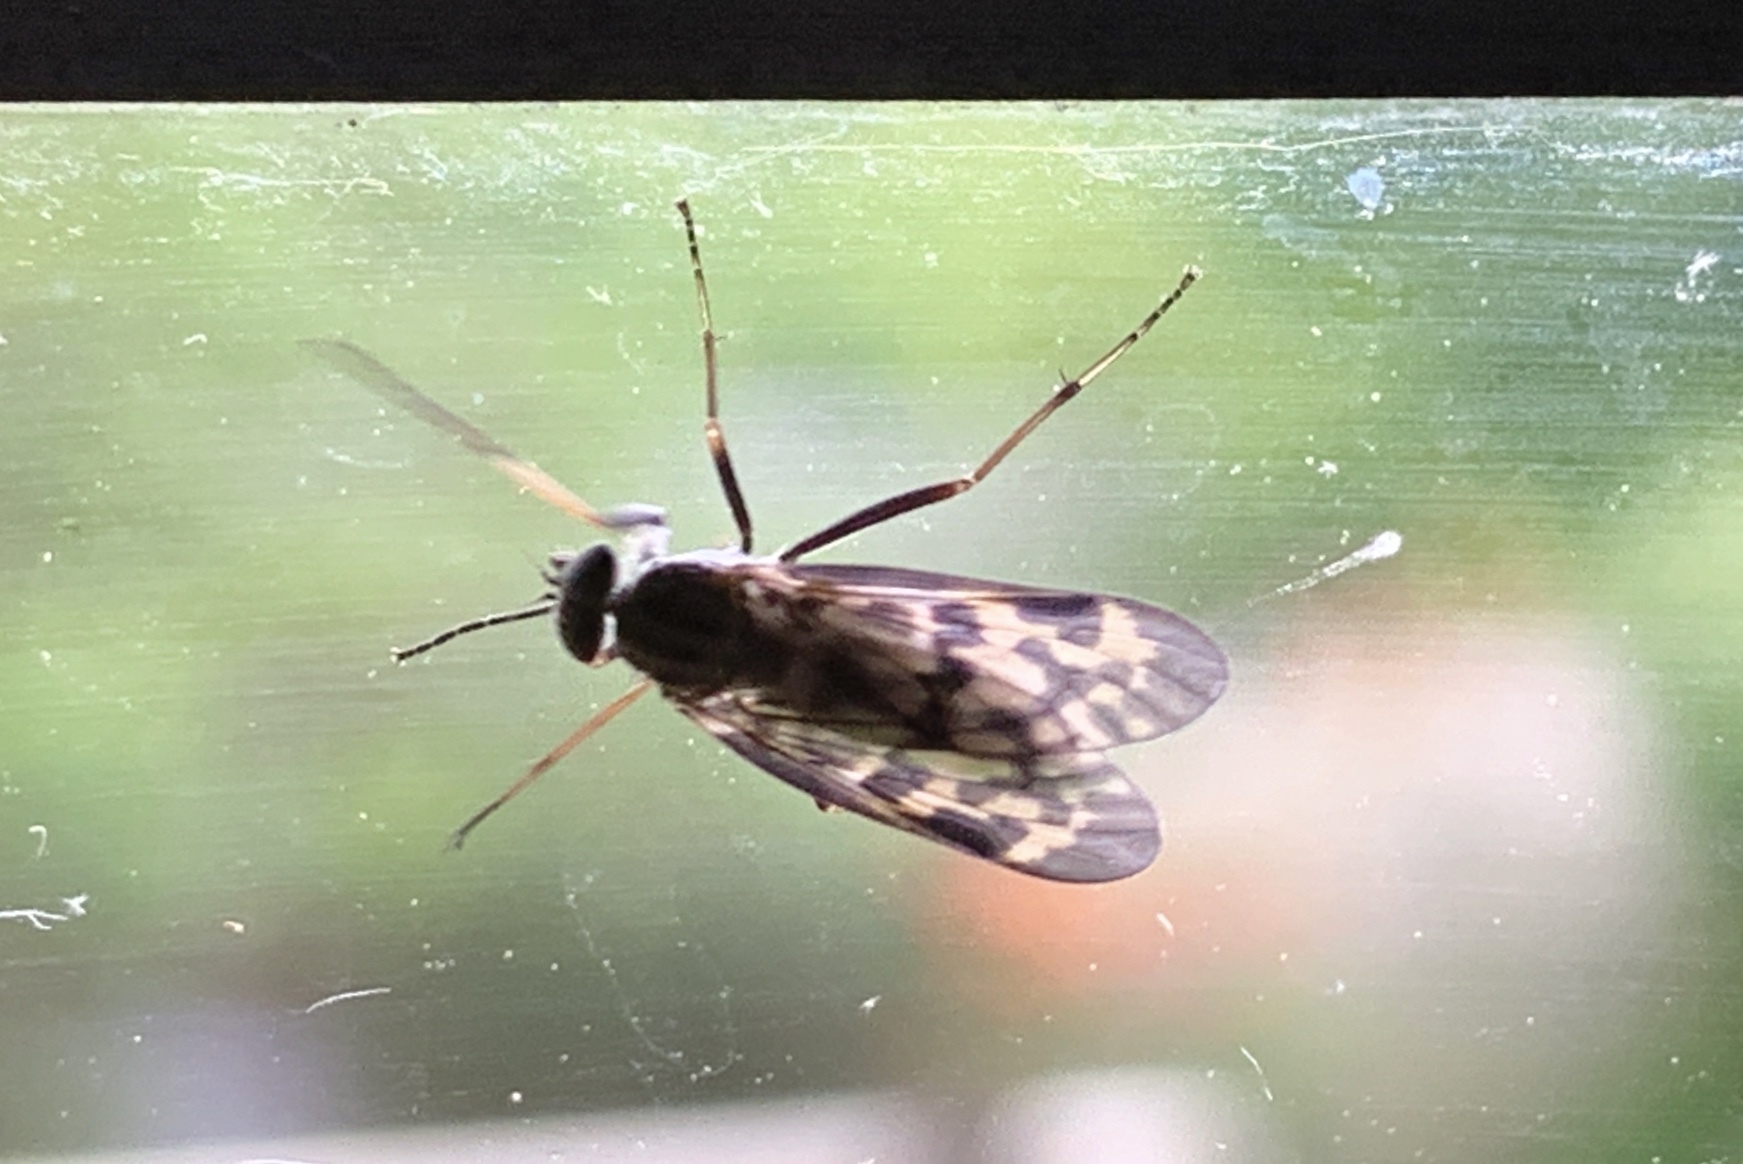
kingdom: Animalia
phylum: Arthropoda
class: Insecta
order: Diptera
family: Rhagionidae
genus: Rhagio
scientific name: Rhagio punctipennis
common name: Lesser variegated snipe fly
